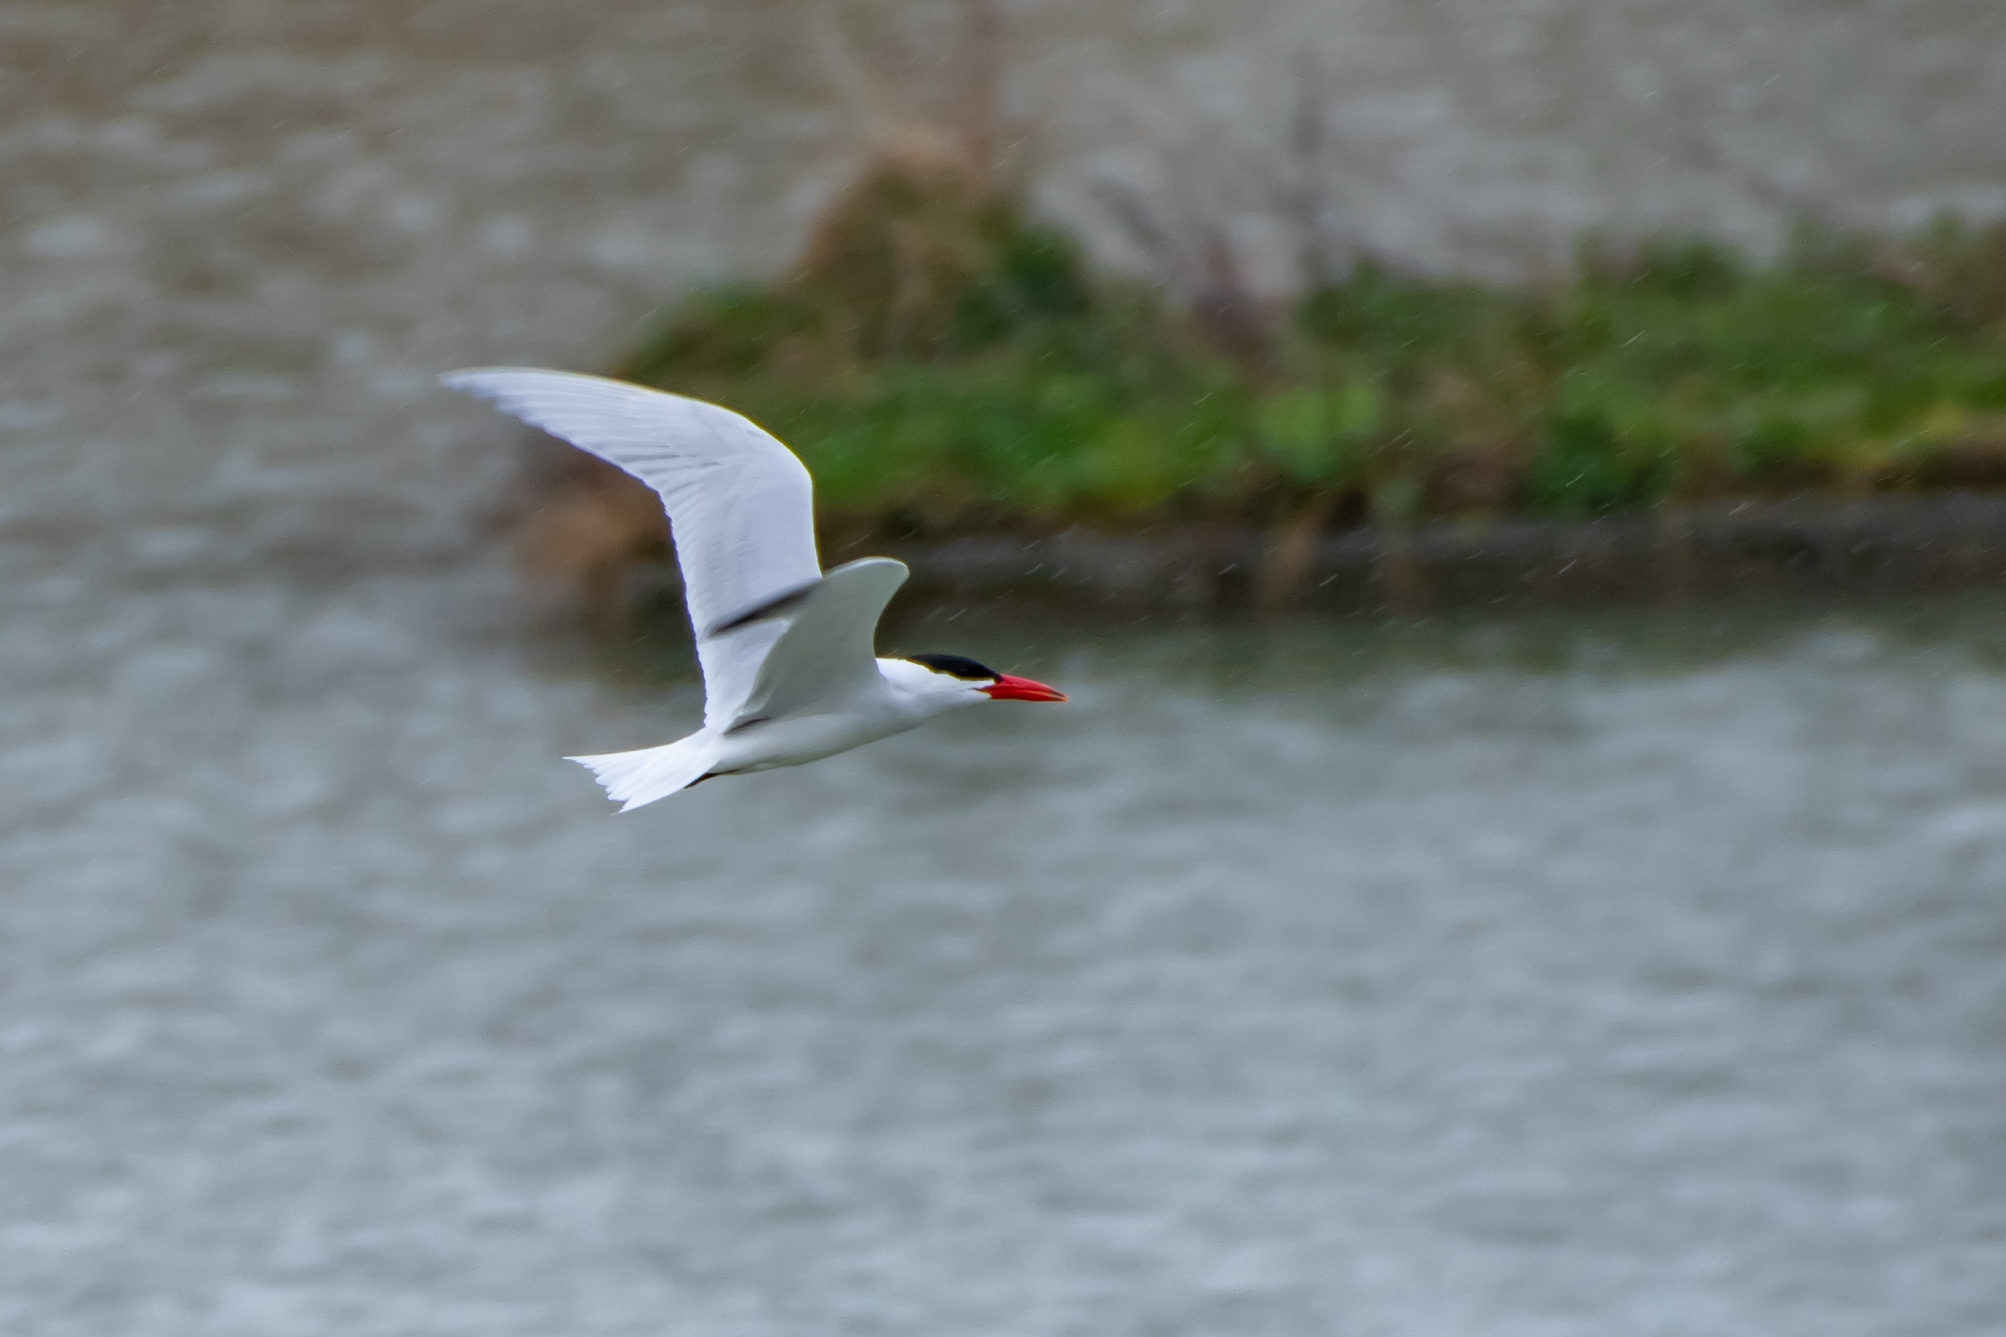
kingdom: Animalia
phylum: Chordata
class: Aves
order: Charadriiformes
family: Laridae
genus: Hydroprogne
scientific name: Hydroprogne caspia
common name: Caspian tern
